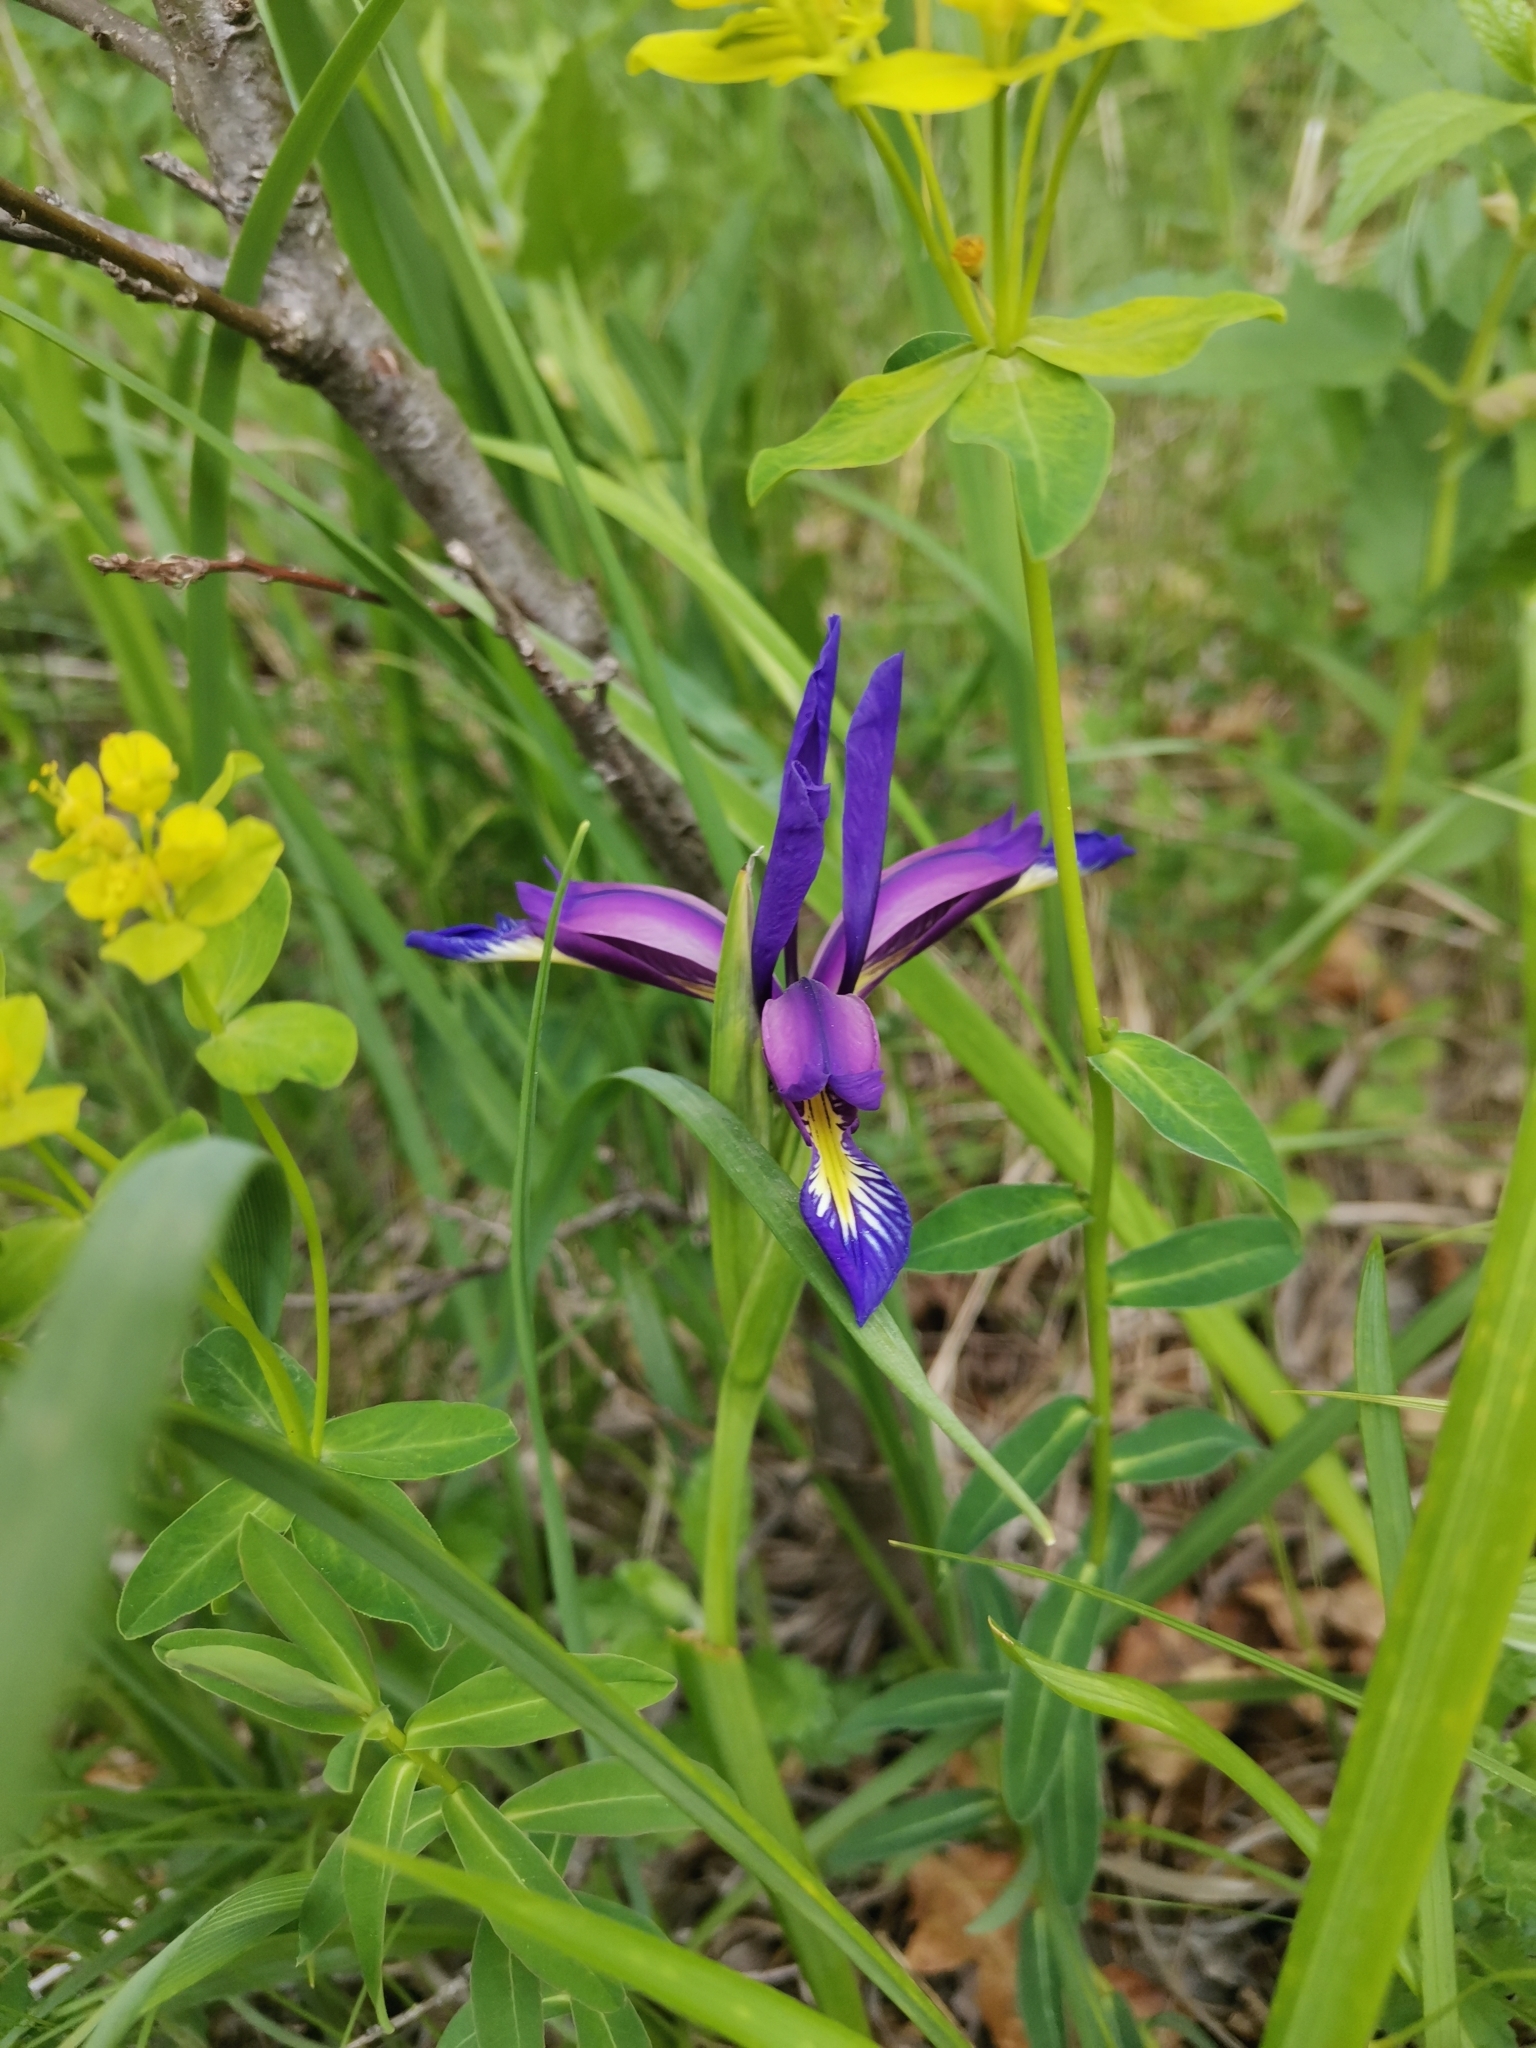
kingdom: Plantae
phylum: Tracheophyta
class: Liliopsida
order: Asparagales
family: Iridaceae
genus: Iris
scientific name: Iris graminea
